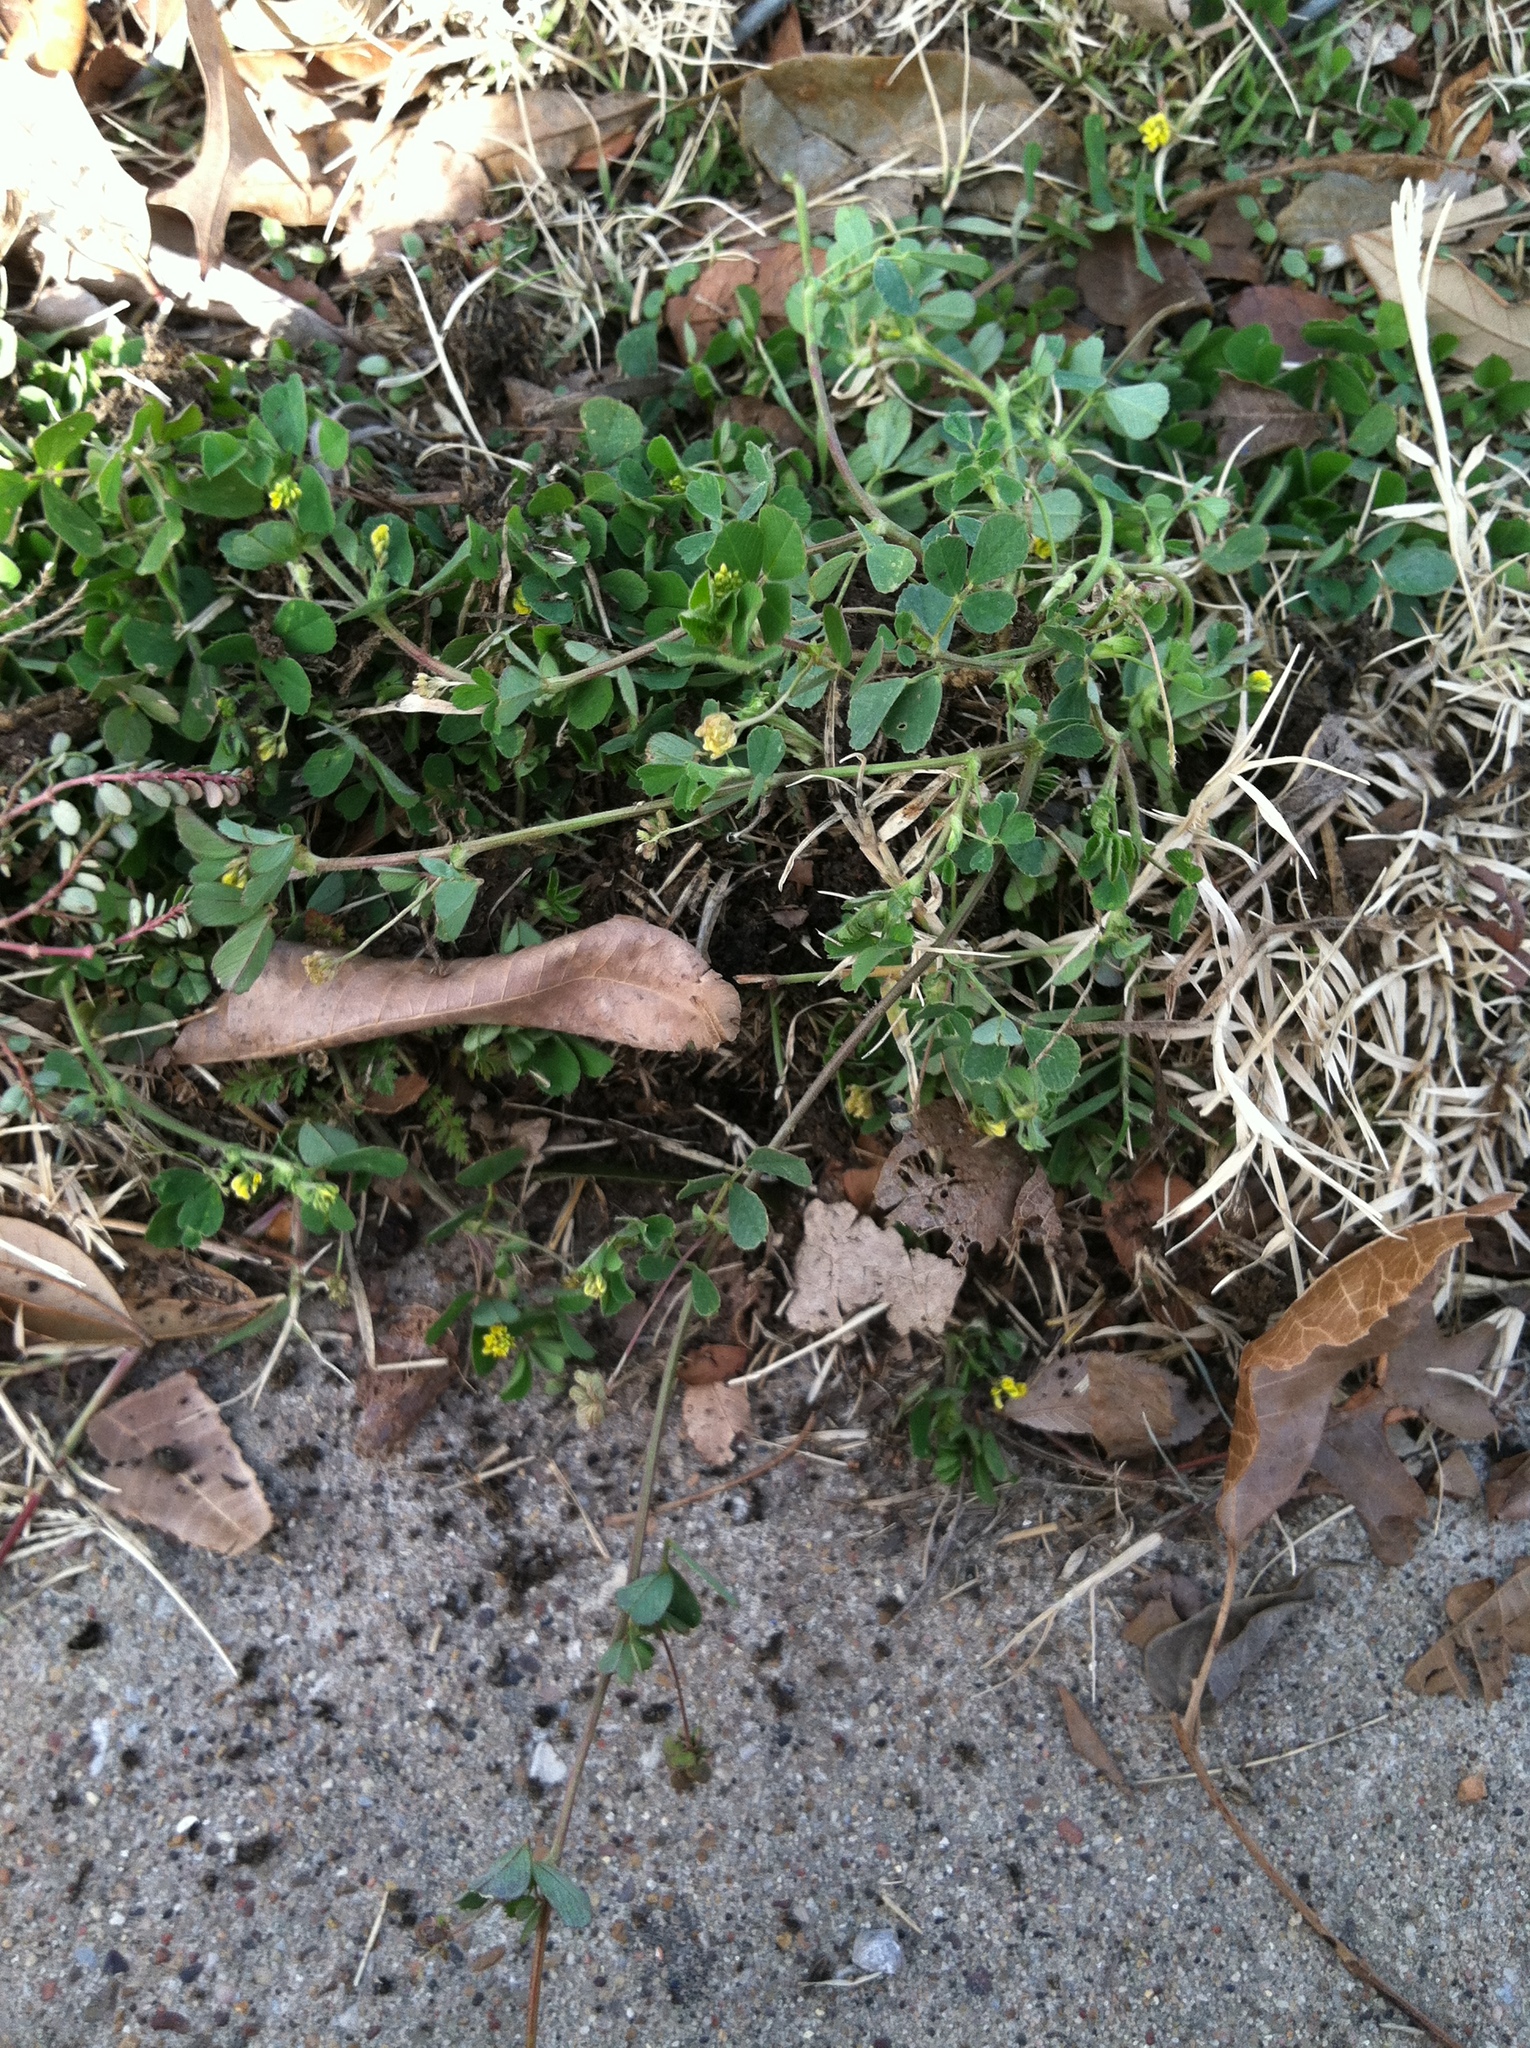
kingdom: Plantae
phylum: Tracheophyta
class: Magnoliopsida
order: Fabales
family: Fabaceae
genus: Medicago
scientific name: Medicago lupulina
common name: Black medick
